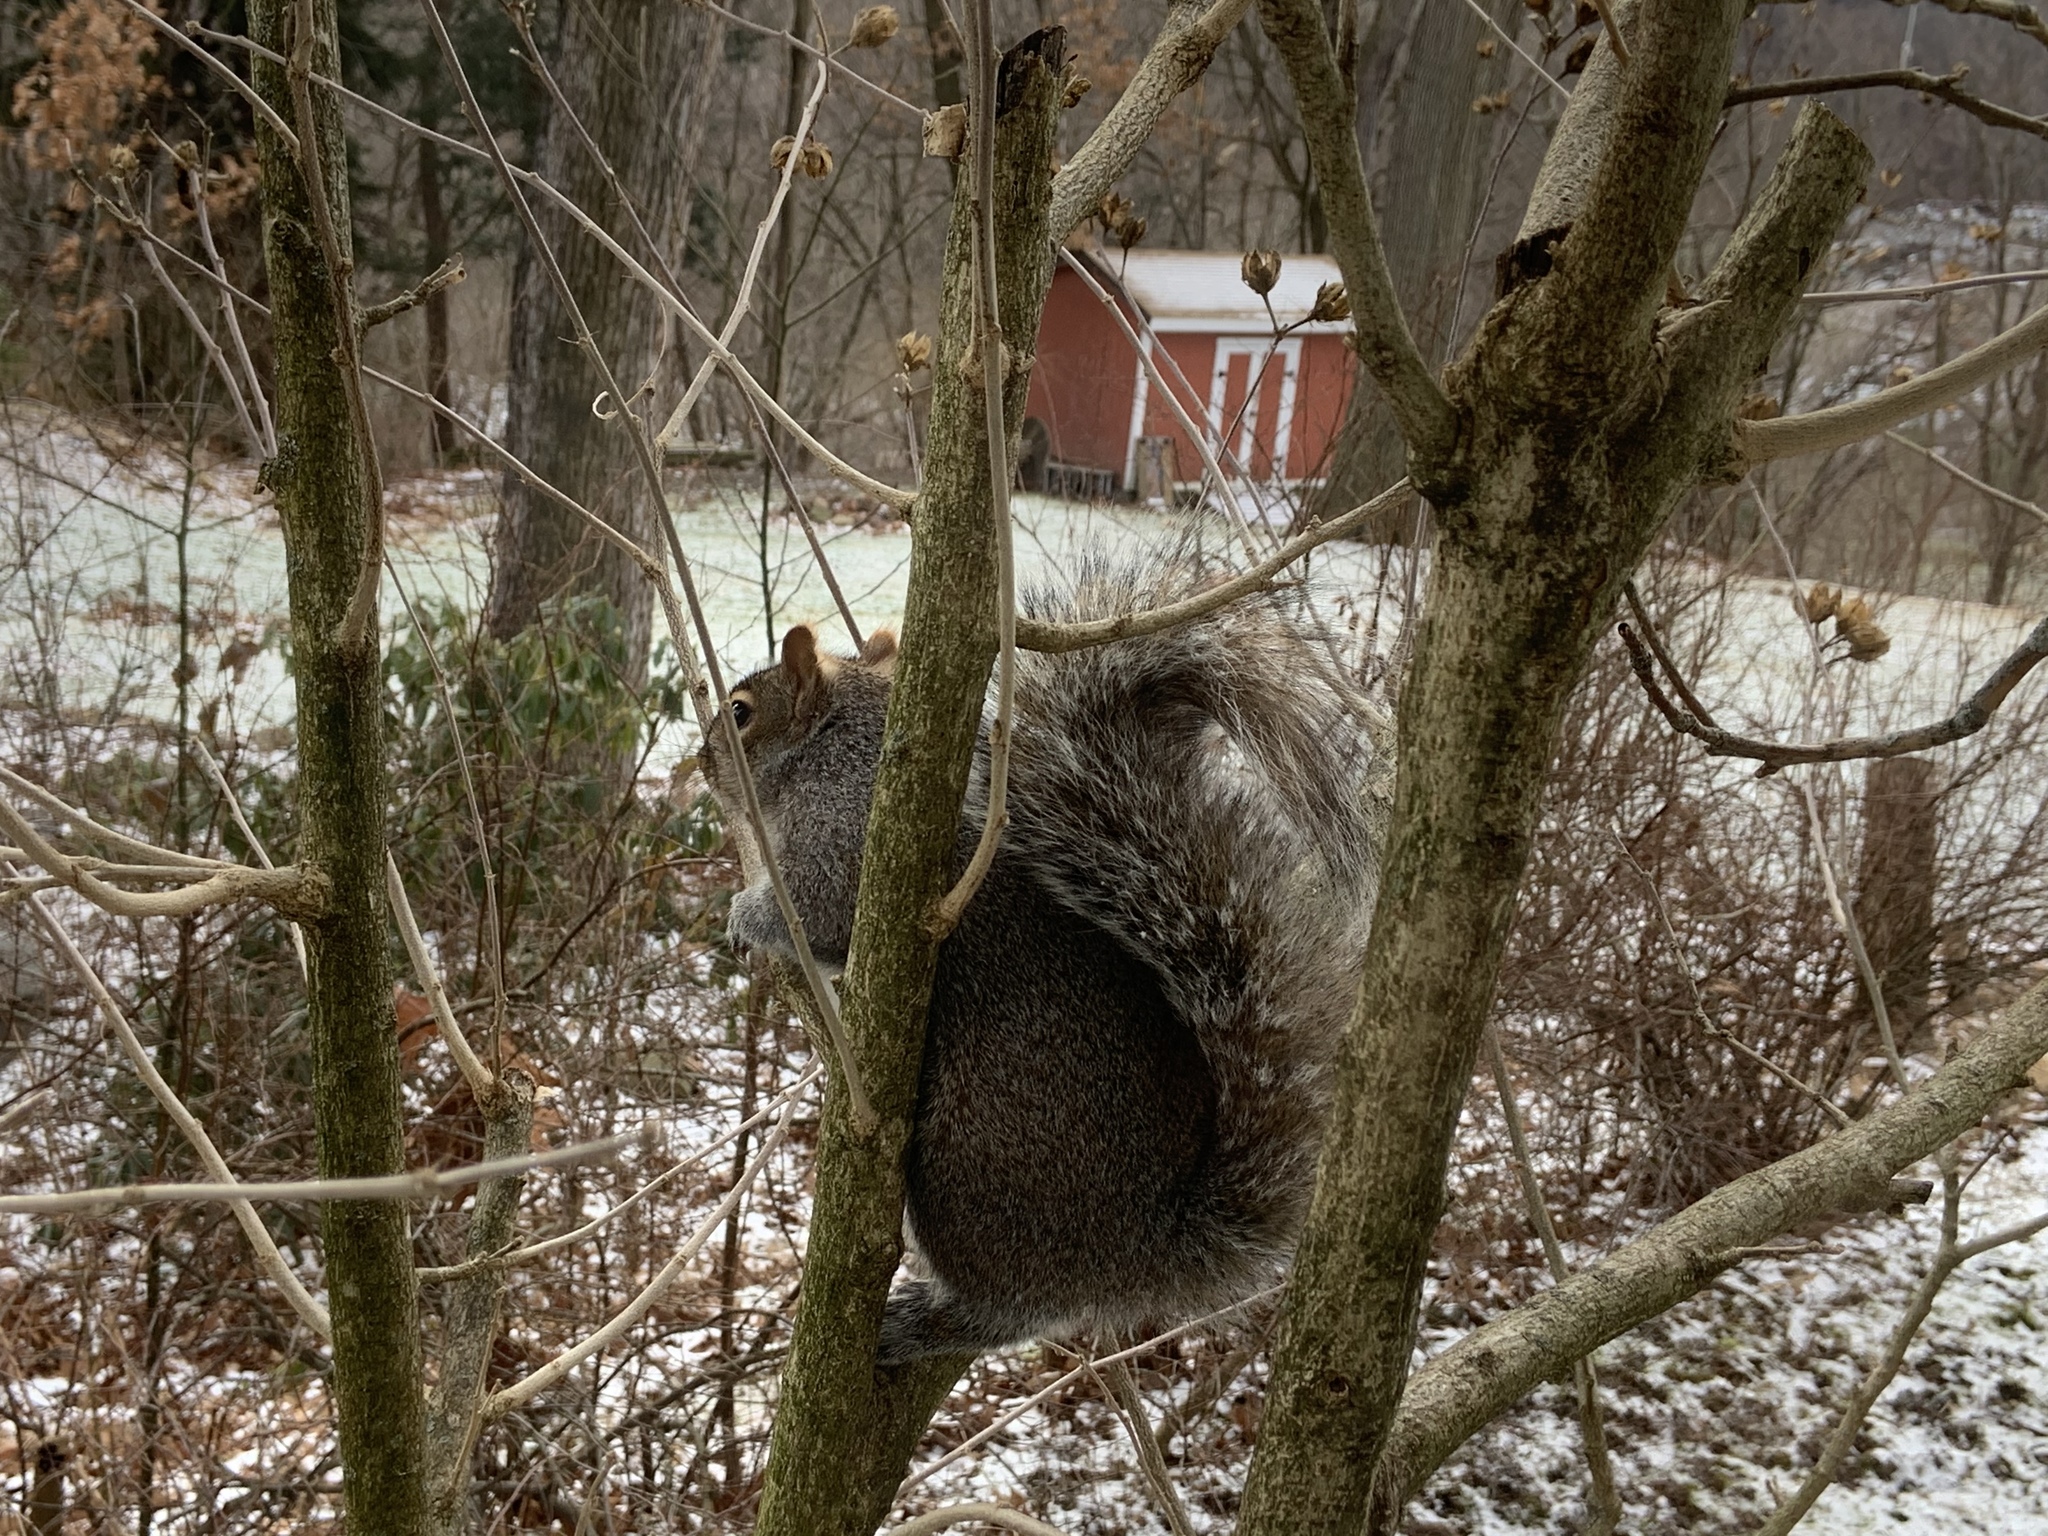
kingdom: Animalia
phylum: Chordata
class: Mammalia
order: Rodentia
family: Sciuridae
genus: Sciurus
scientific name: Sciurus carolinensis
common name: Eastern gray squirrel
